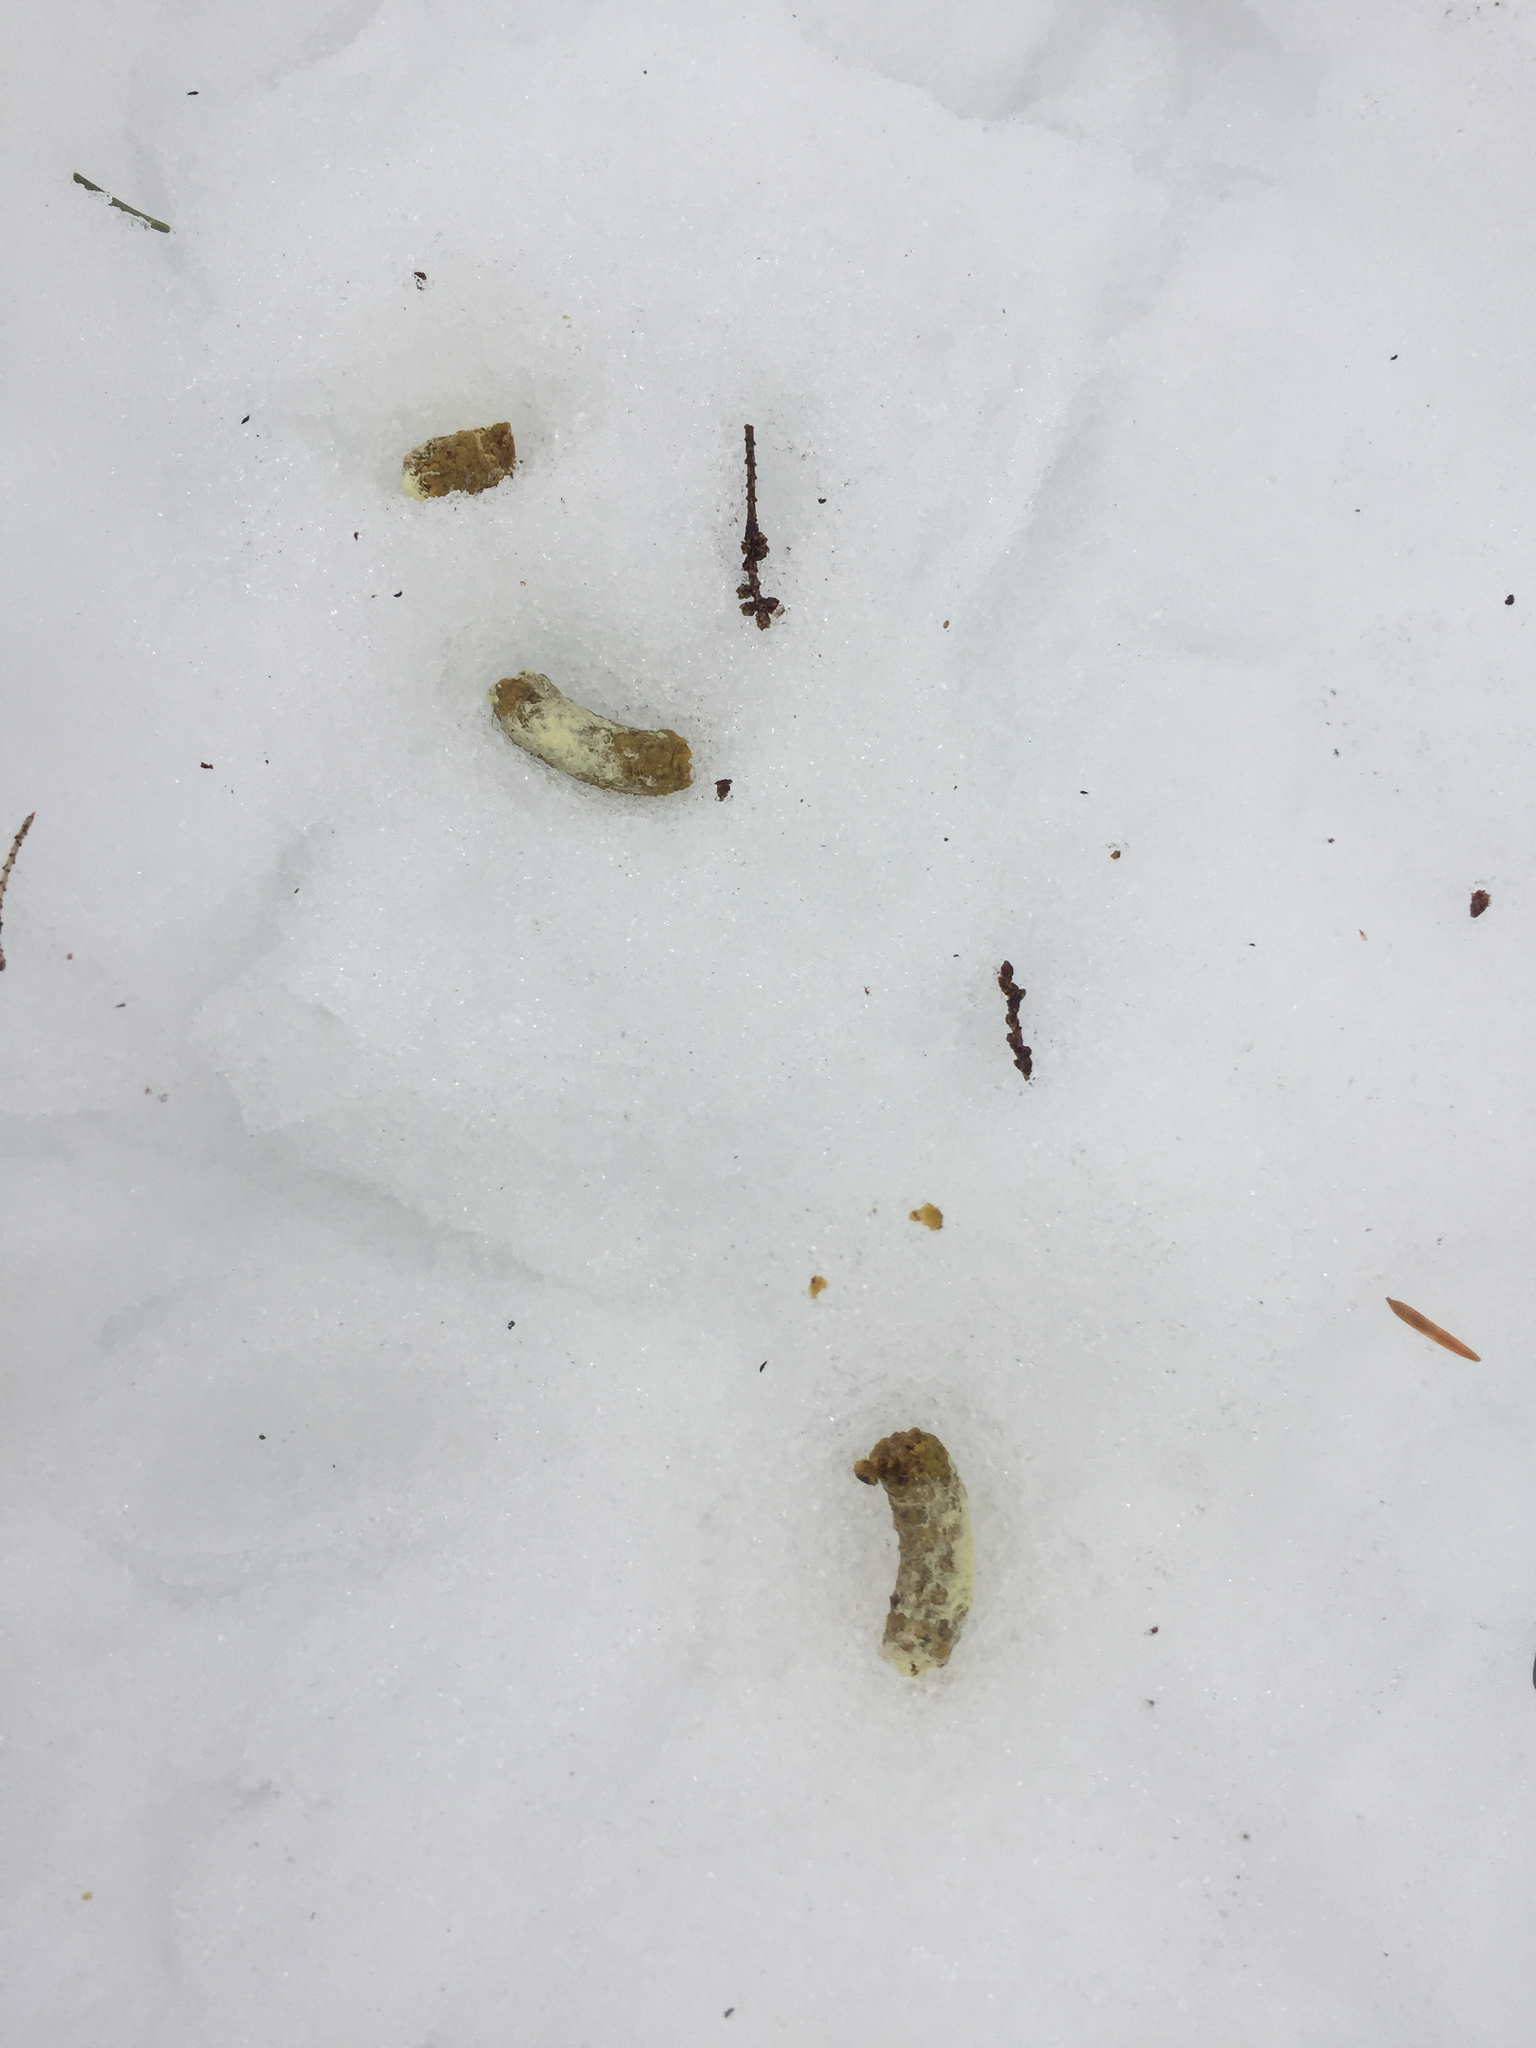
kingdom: Animalia
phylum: Chordata
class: Aves
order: Galliformes
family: Phasianidae
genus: Bonasa
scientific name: Bonasa umbellus
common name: Ruffed grouse
